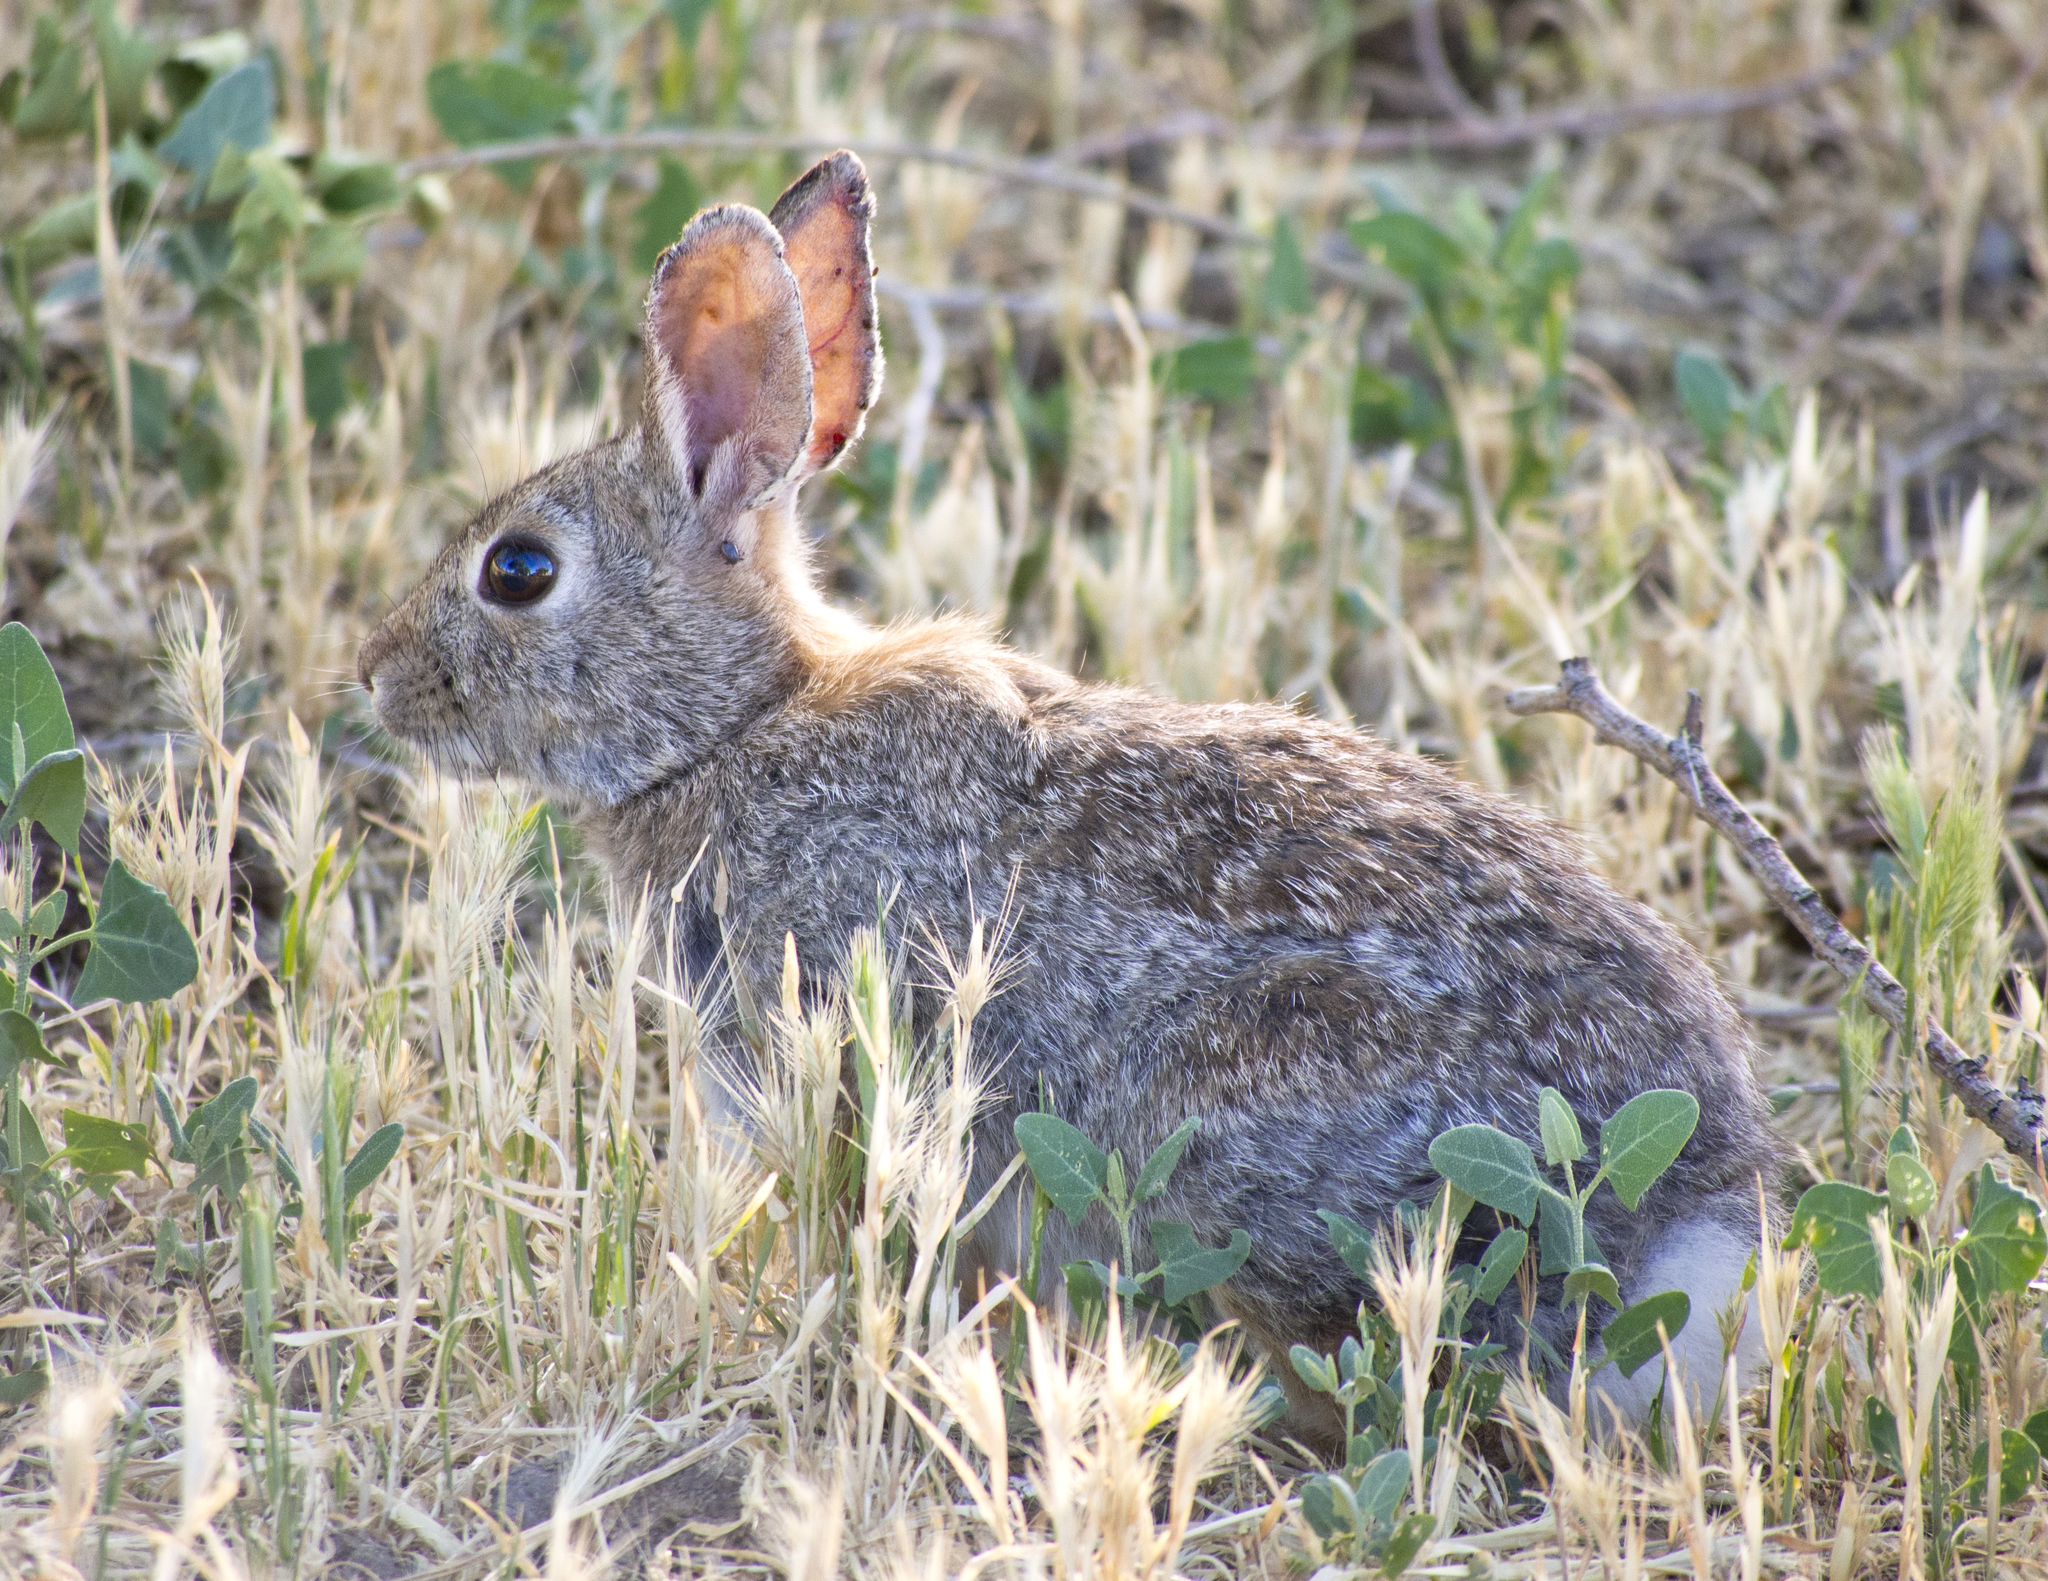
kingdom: Animalia
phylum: Chordata
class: Mammalia
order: Lagomorpha
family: Leporidae
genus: Sylvilagus
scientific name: Sylvilagus nuttallii
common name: Mountain cottontail
